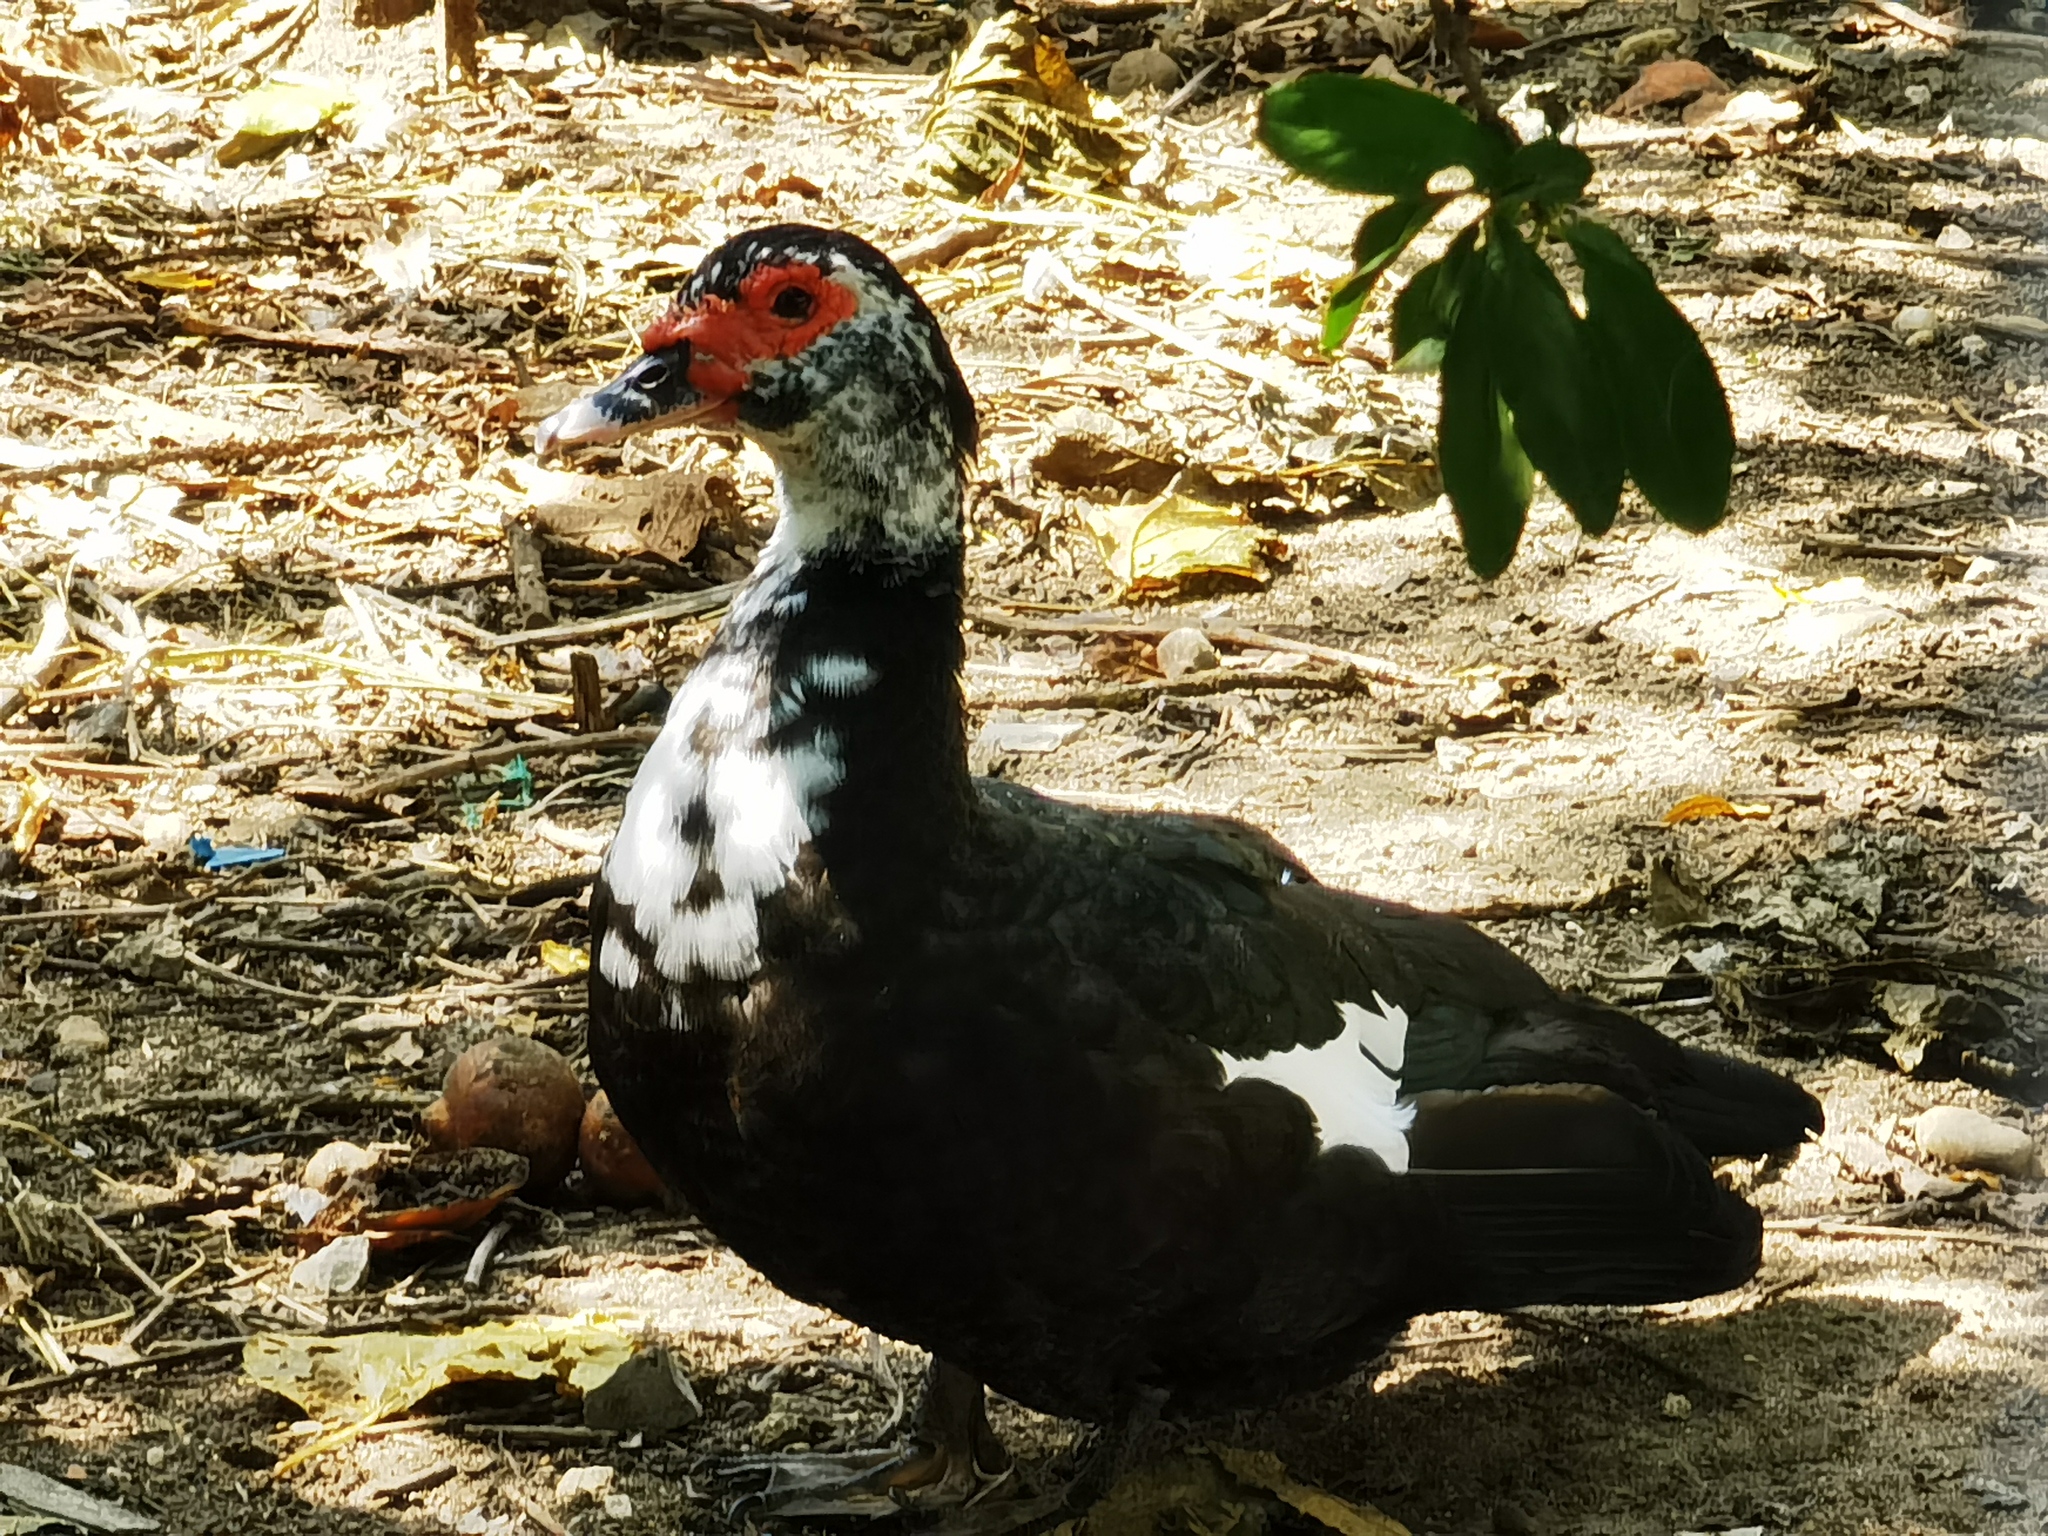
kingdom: Animalia
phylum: Chordata
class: Aves
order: Anseriformes
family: Anatidae
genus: Cairina
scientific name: Cairina moschata
